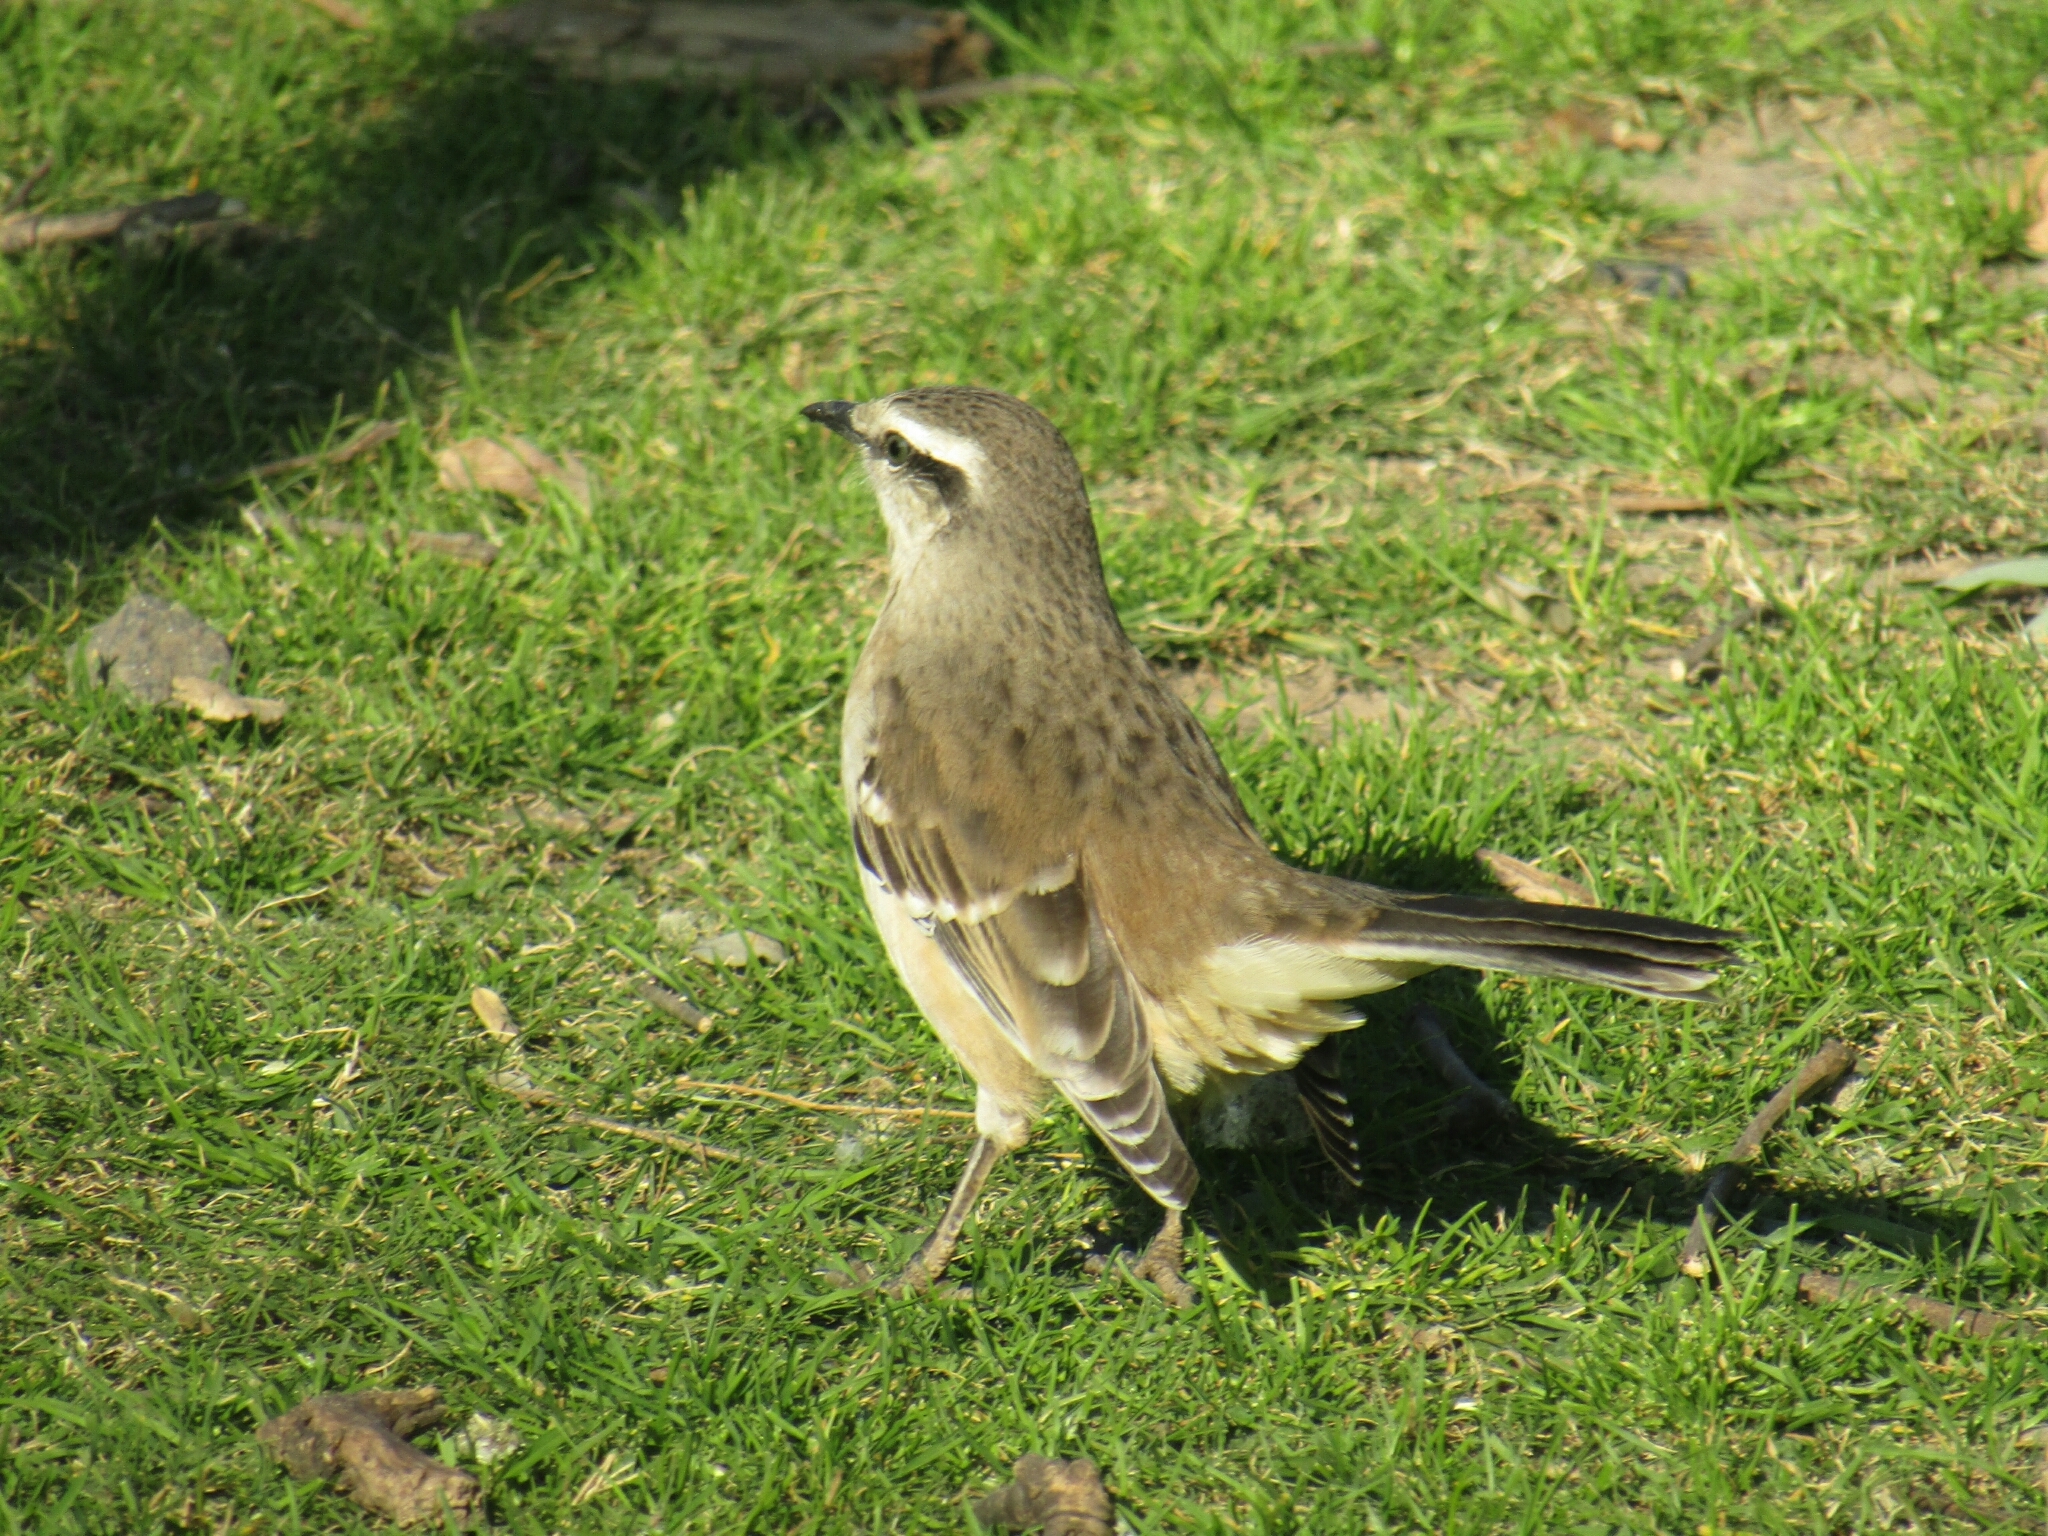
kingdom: Animalia
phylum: Chordata
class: Aves
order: Passeriformes
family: Mimidae
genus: Mimus
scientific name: Mimus saturninus
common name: Chalk-browed mockingbird
